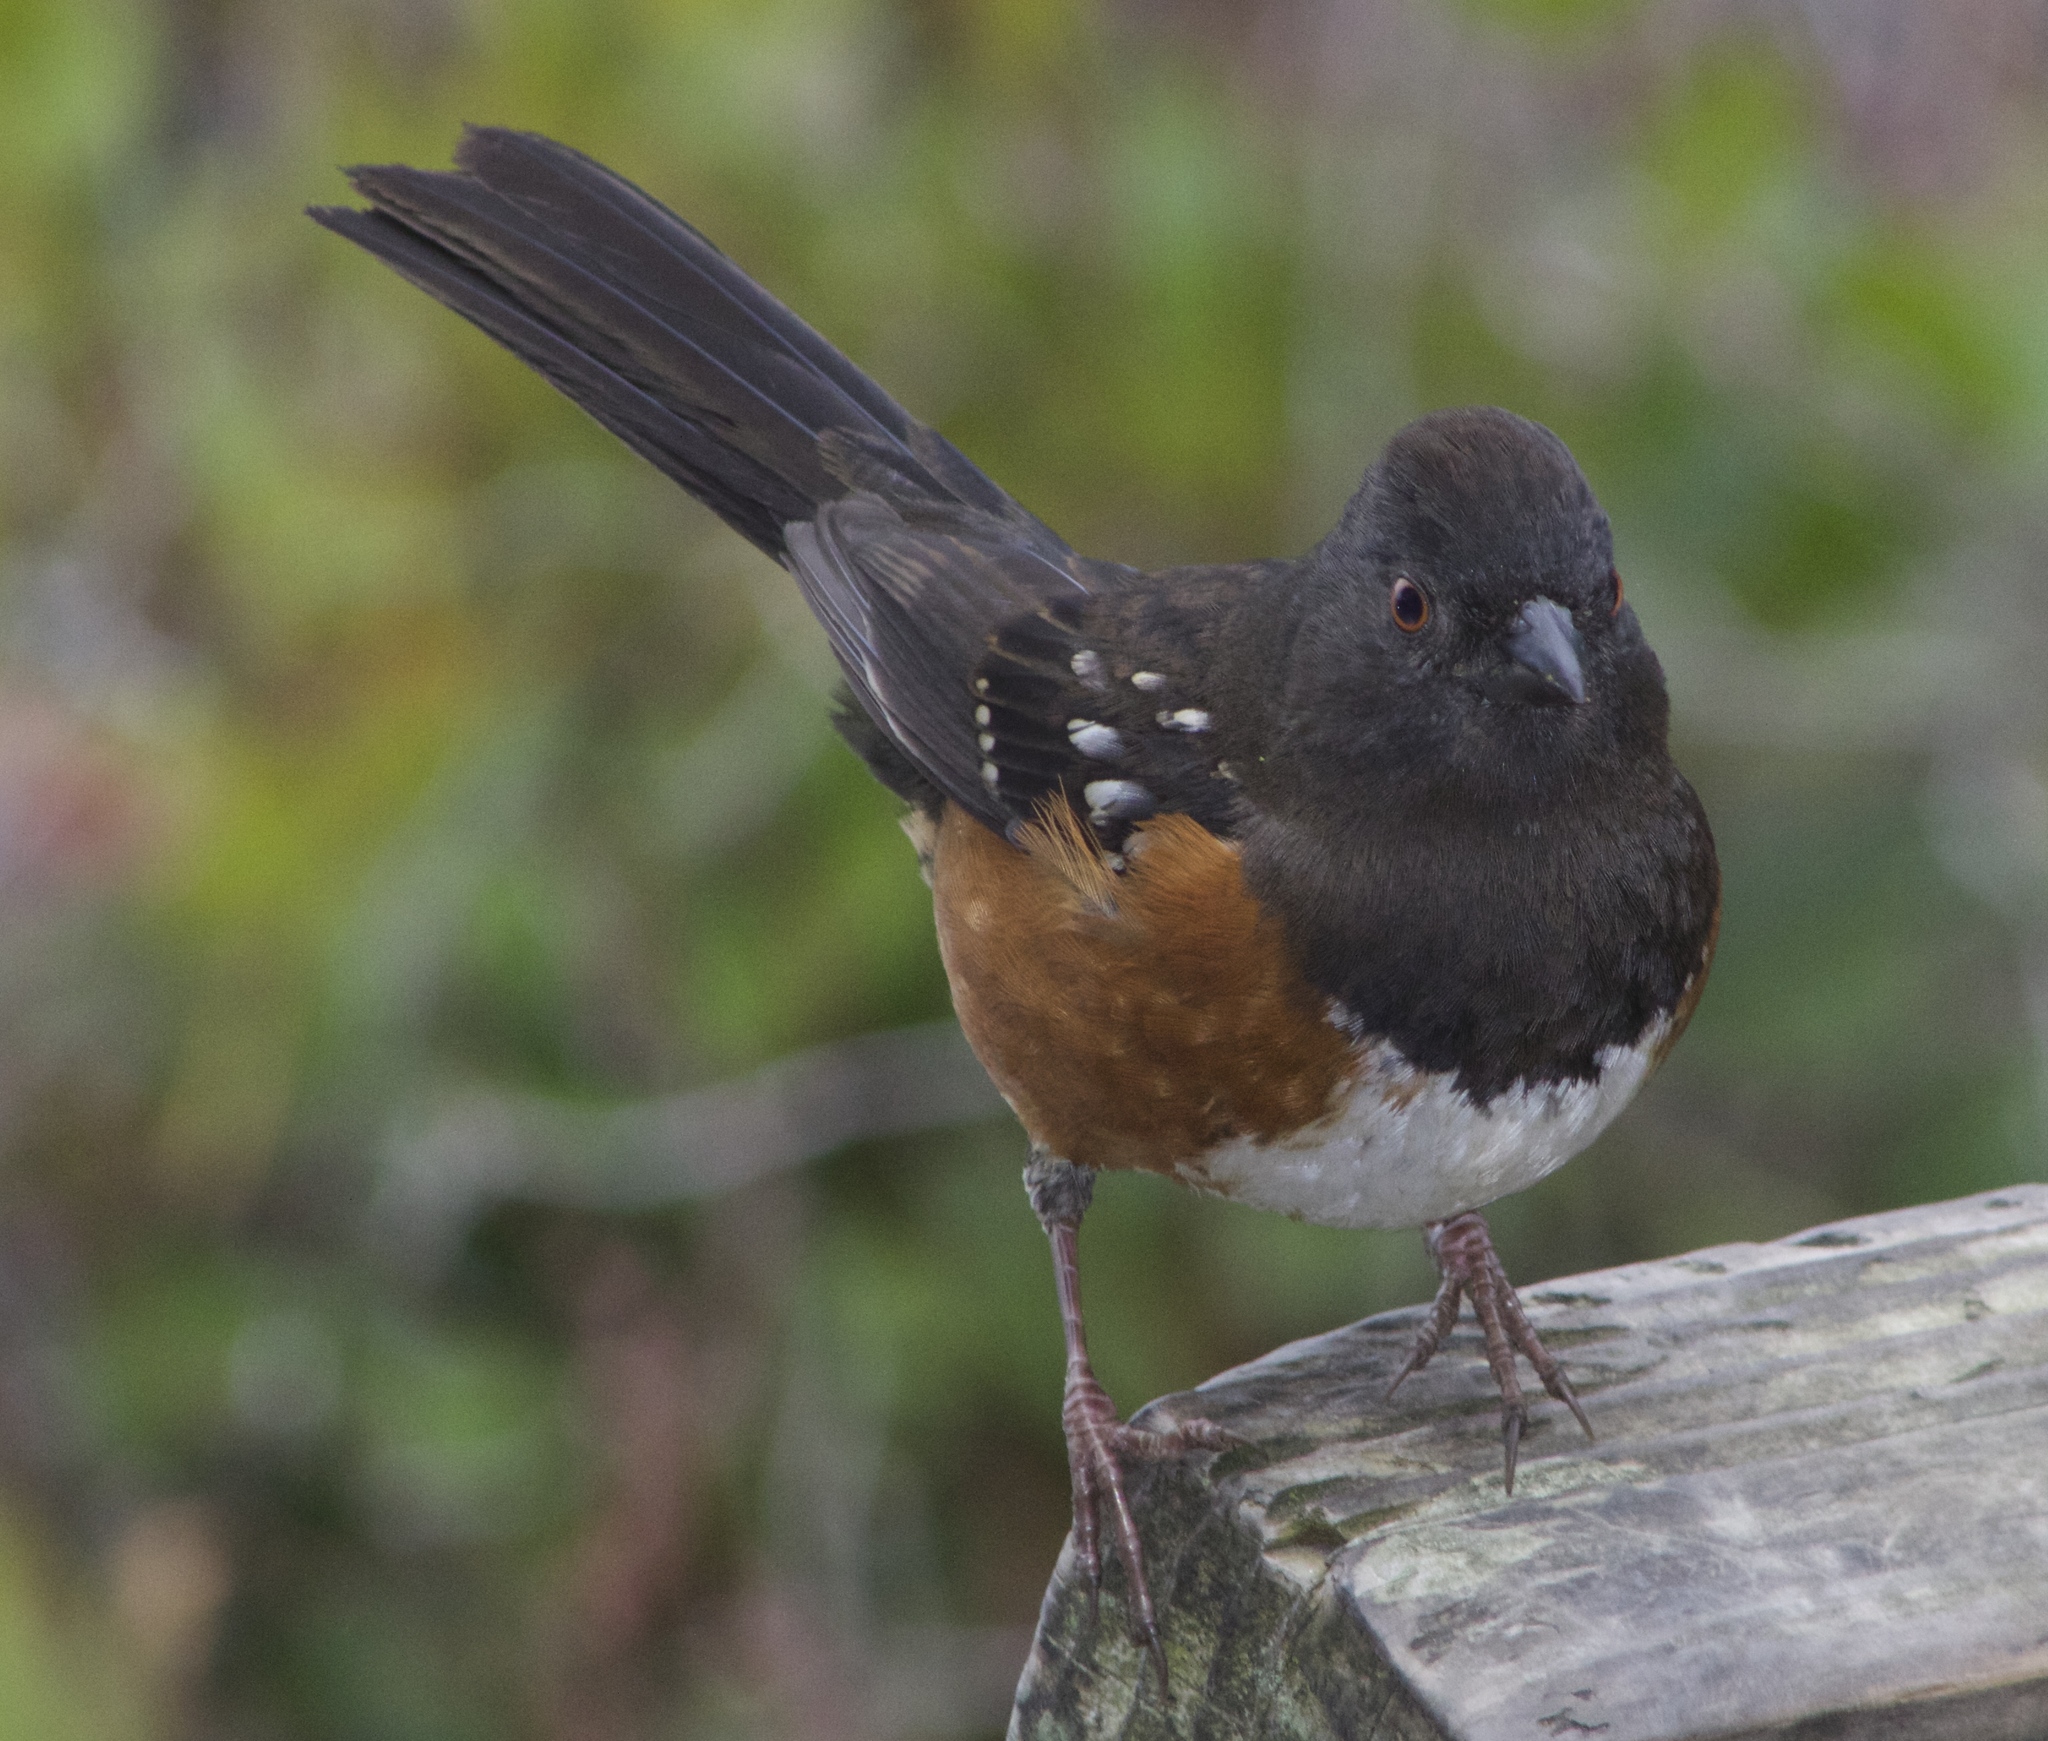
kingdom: Animalia
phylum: Chordata
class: Aves
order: Passeriformes
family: Passerellidae
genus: Pipilo
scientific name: Pipilo maculatus
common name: Spotted towhee
